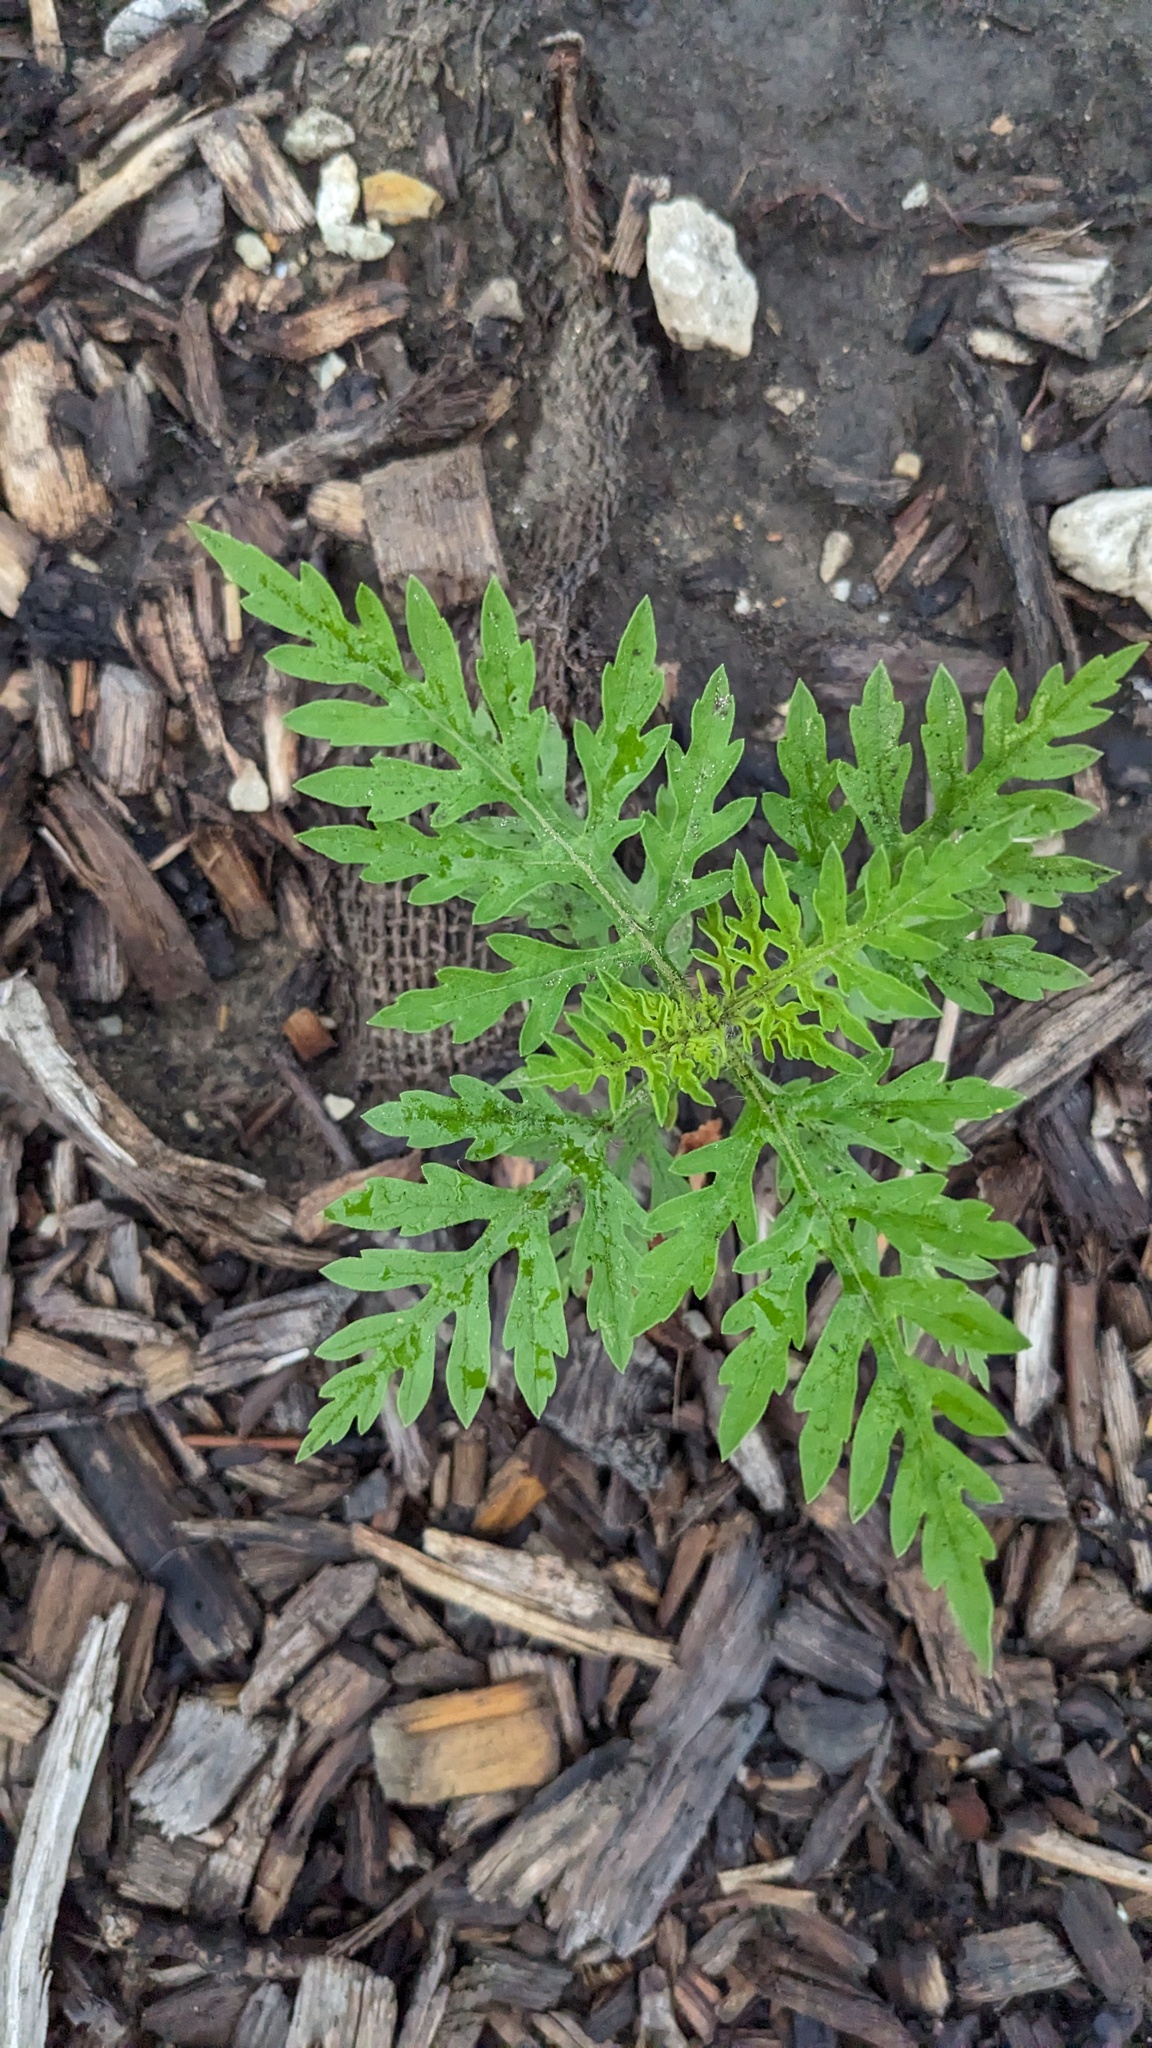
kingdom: Plantae
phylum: Tracheophyta
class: Magnoliopsida
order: Asterales
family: Asteraceae
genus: Ambrosia
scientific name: Ambrosia artemisiifolia
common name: Annual ragweed
